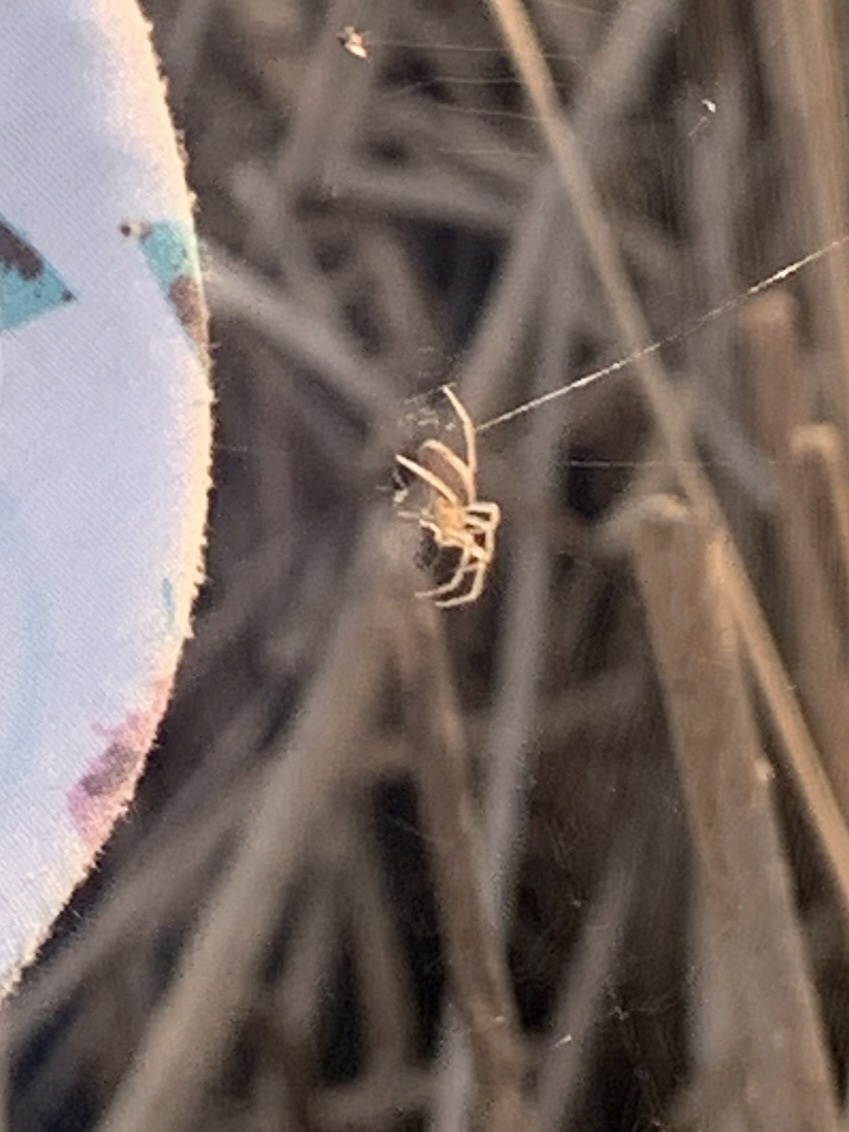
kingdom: Animalia
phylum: Arthropoda
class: Arachnida
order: Araneae
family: Araneidae
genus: Larinia
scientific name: Larinia borealis
